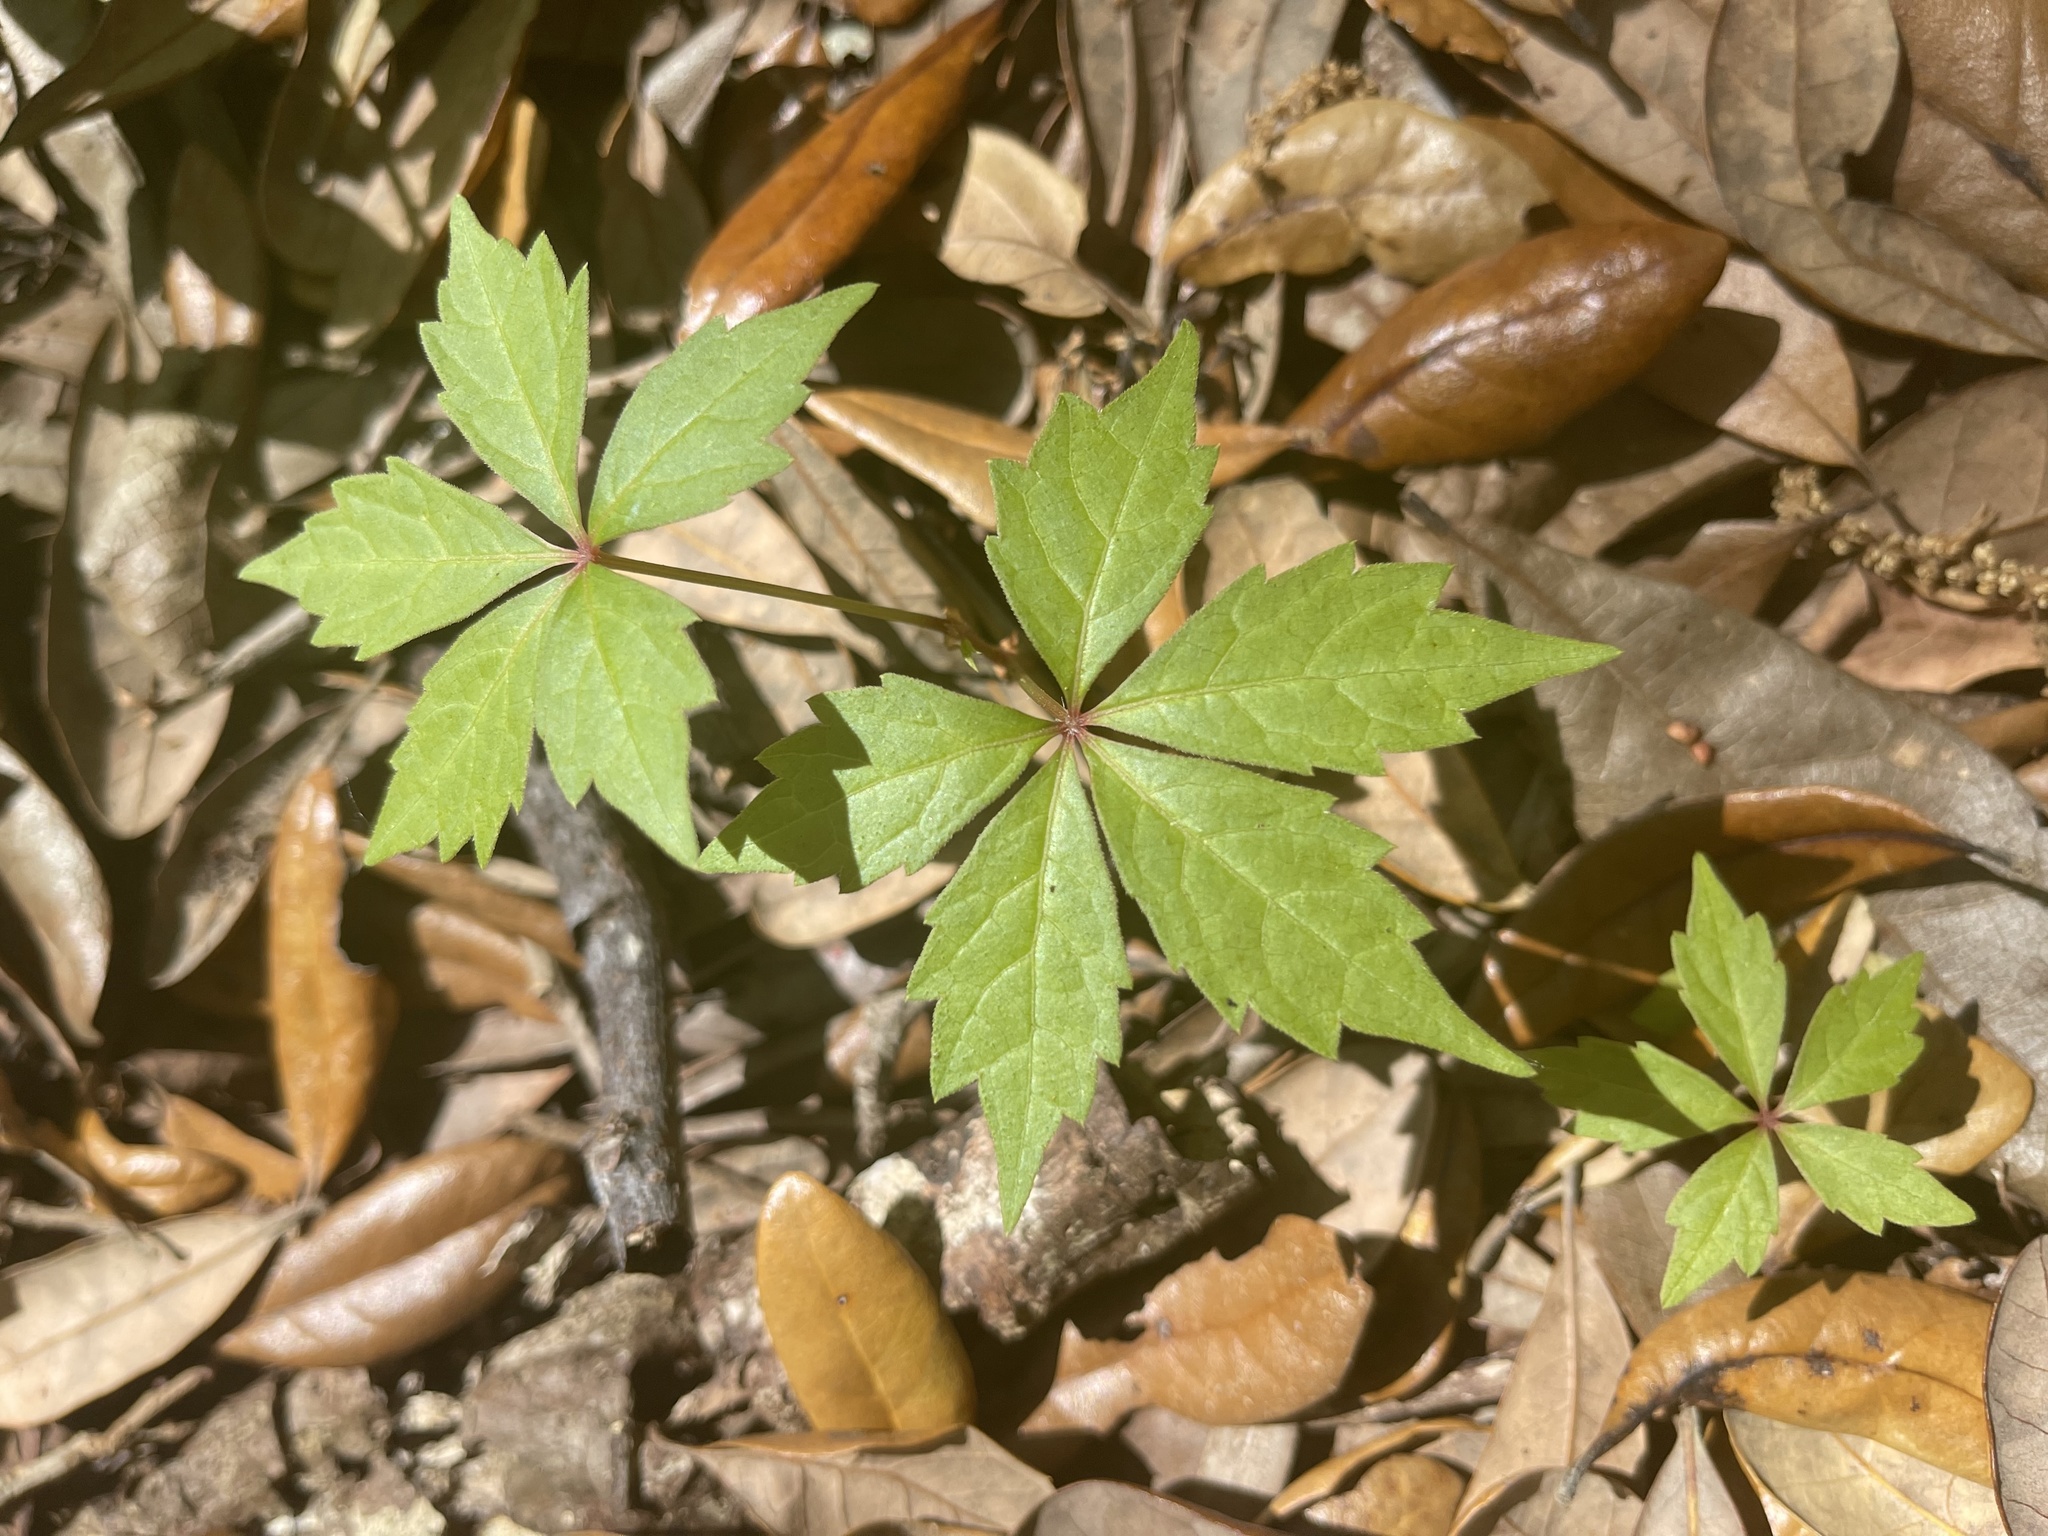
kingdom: Plantae
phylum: Tracheophyta
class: Magnoliopsida
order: Vitales
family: Vitaceae
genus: Parthenocissus
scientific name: Parthenocissus quinquefolia
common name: Virginia-creeper
